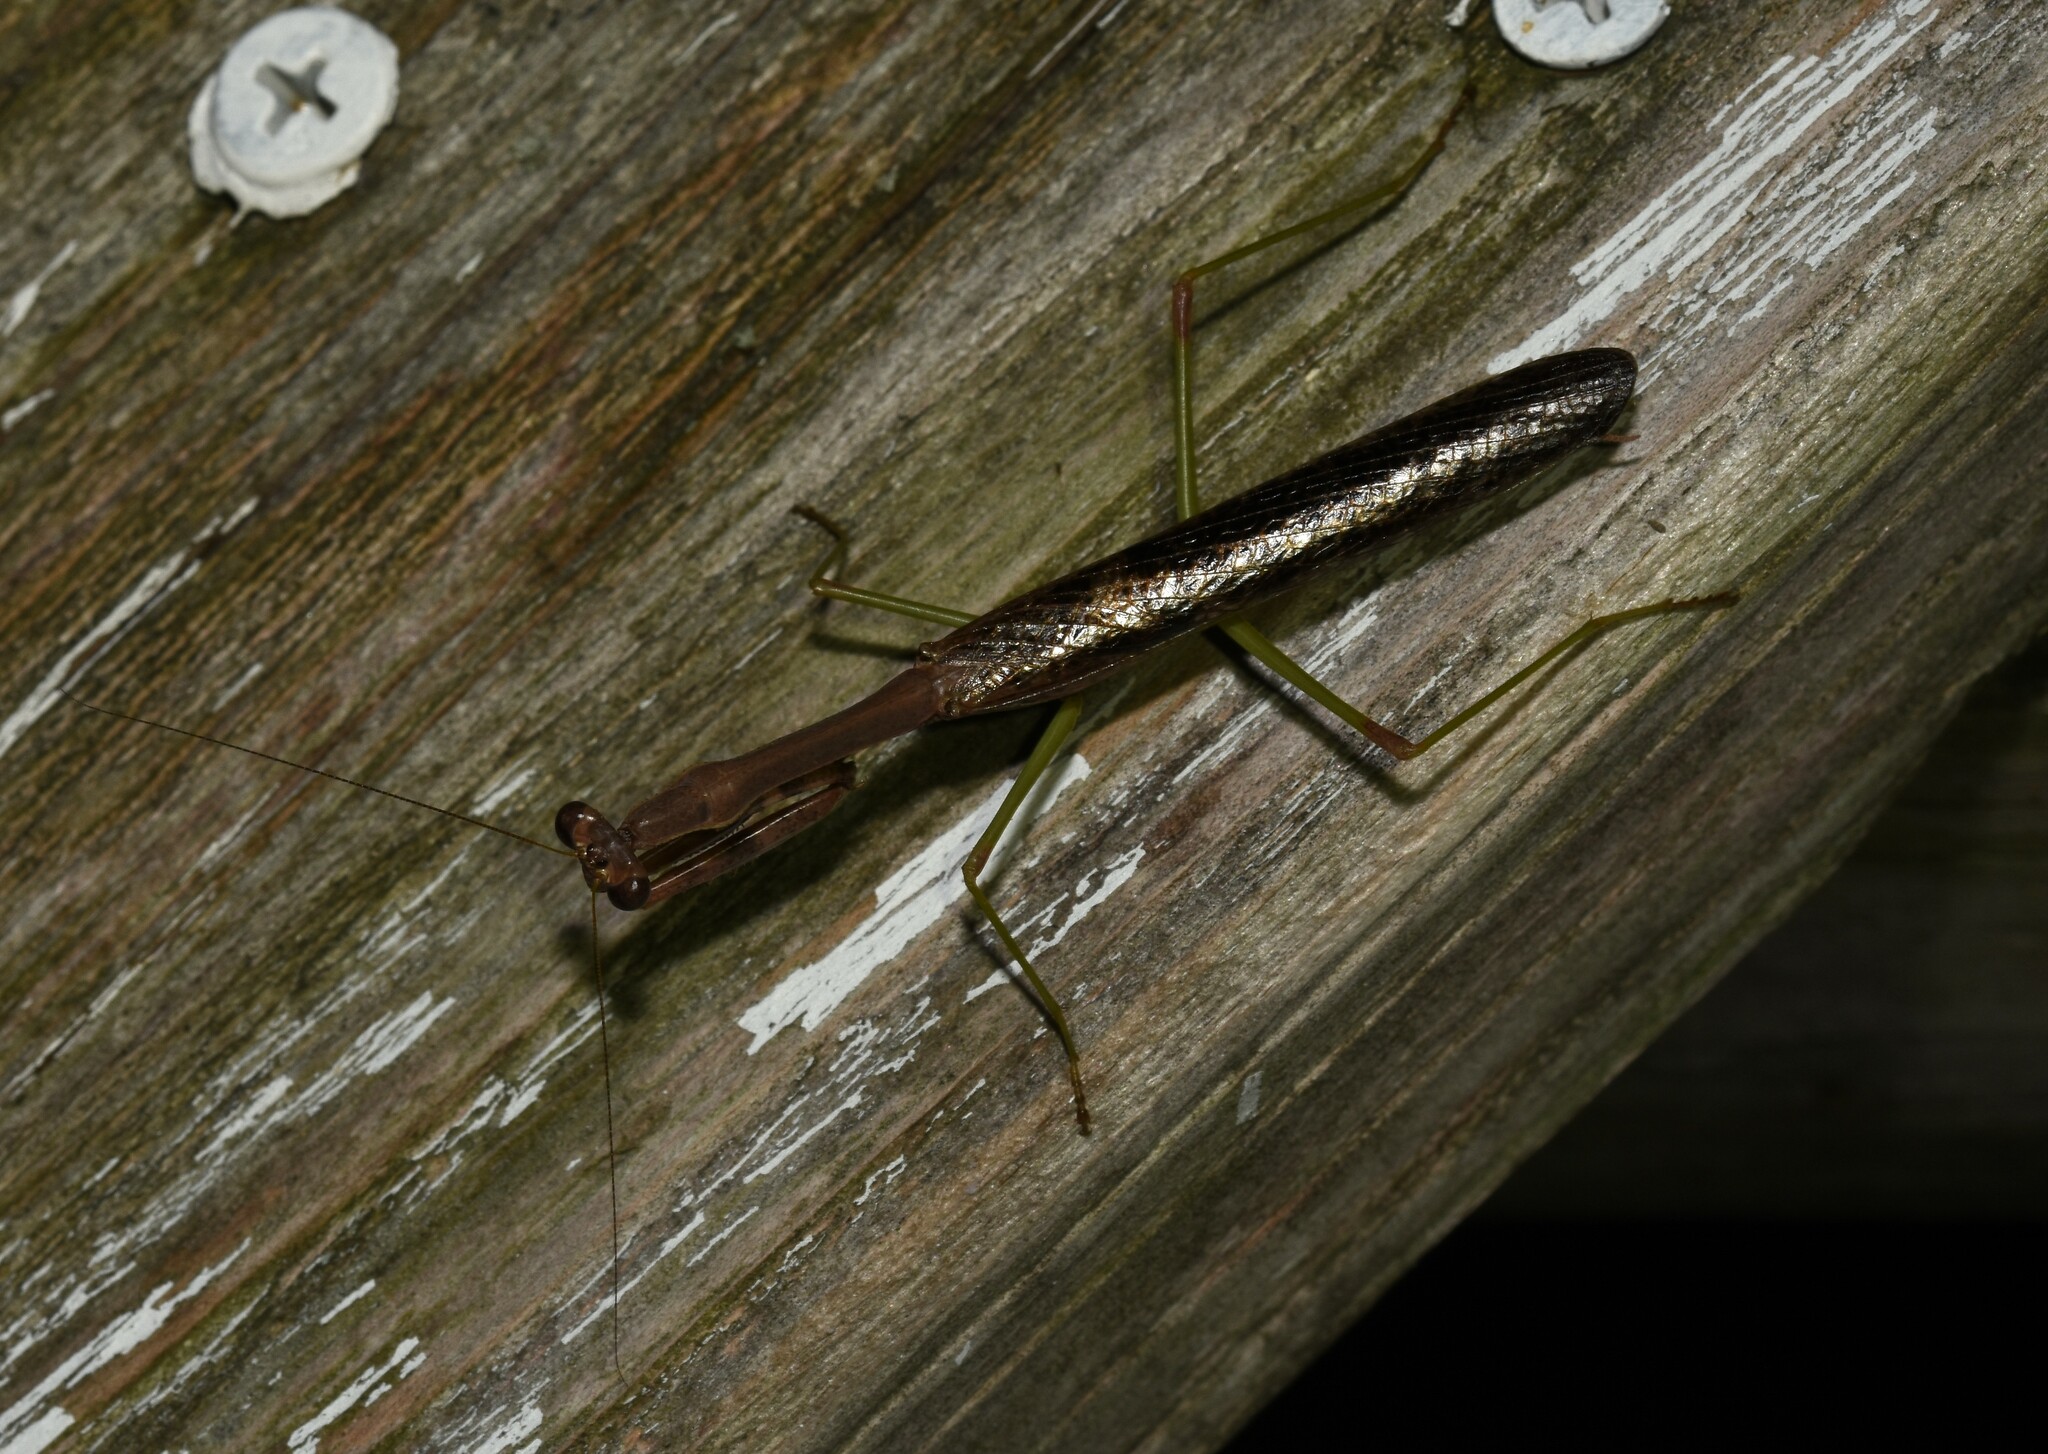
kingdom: Animalia
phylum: Arthropoda
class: Insecta
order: Mantodea
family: Mantidae
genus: Stagmomantis
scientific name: Stagmomantis carolina
